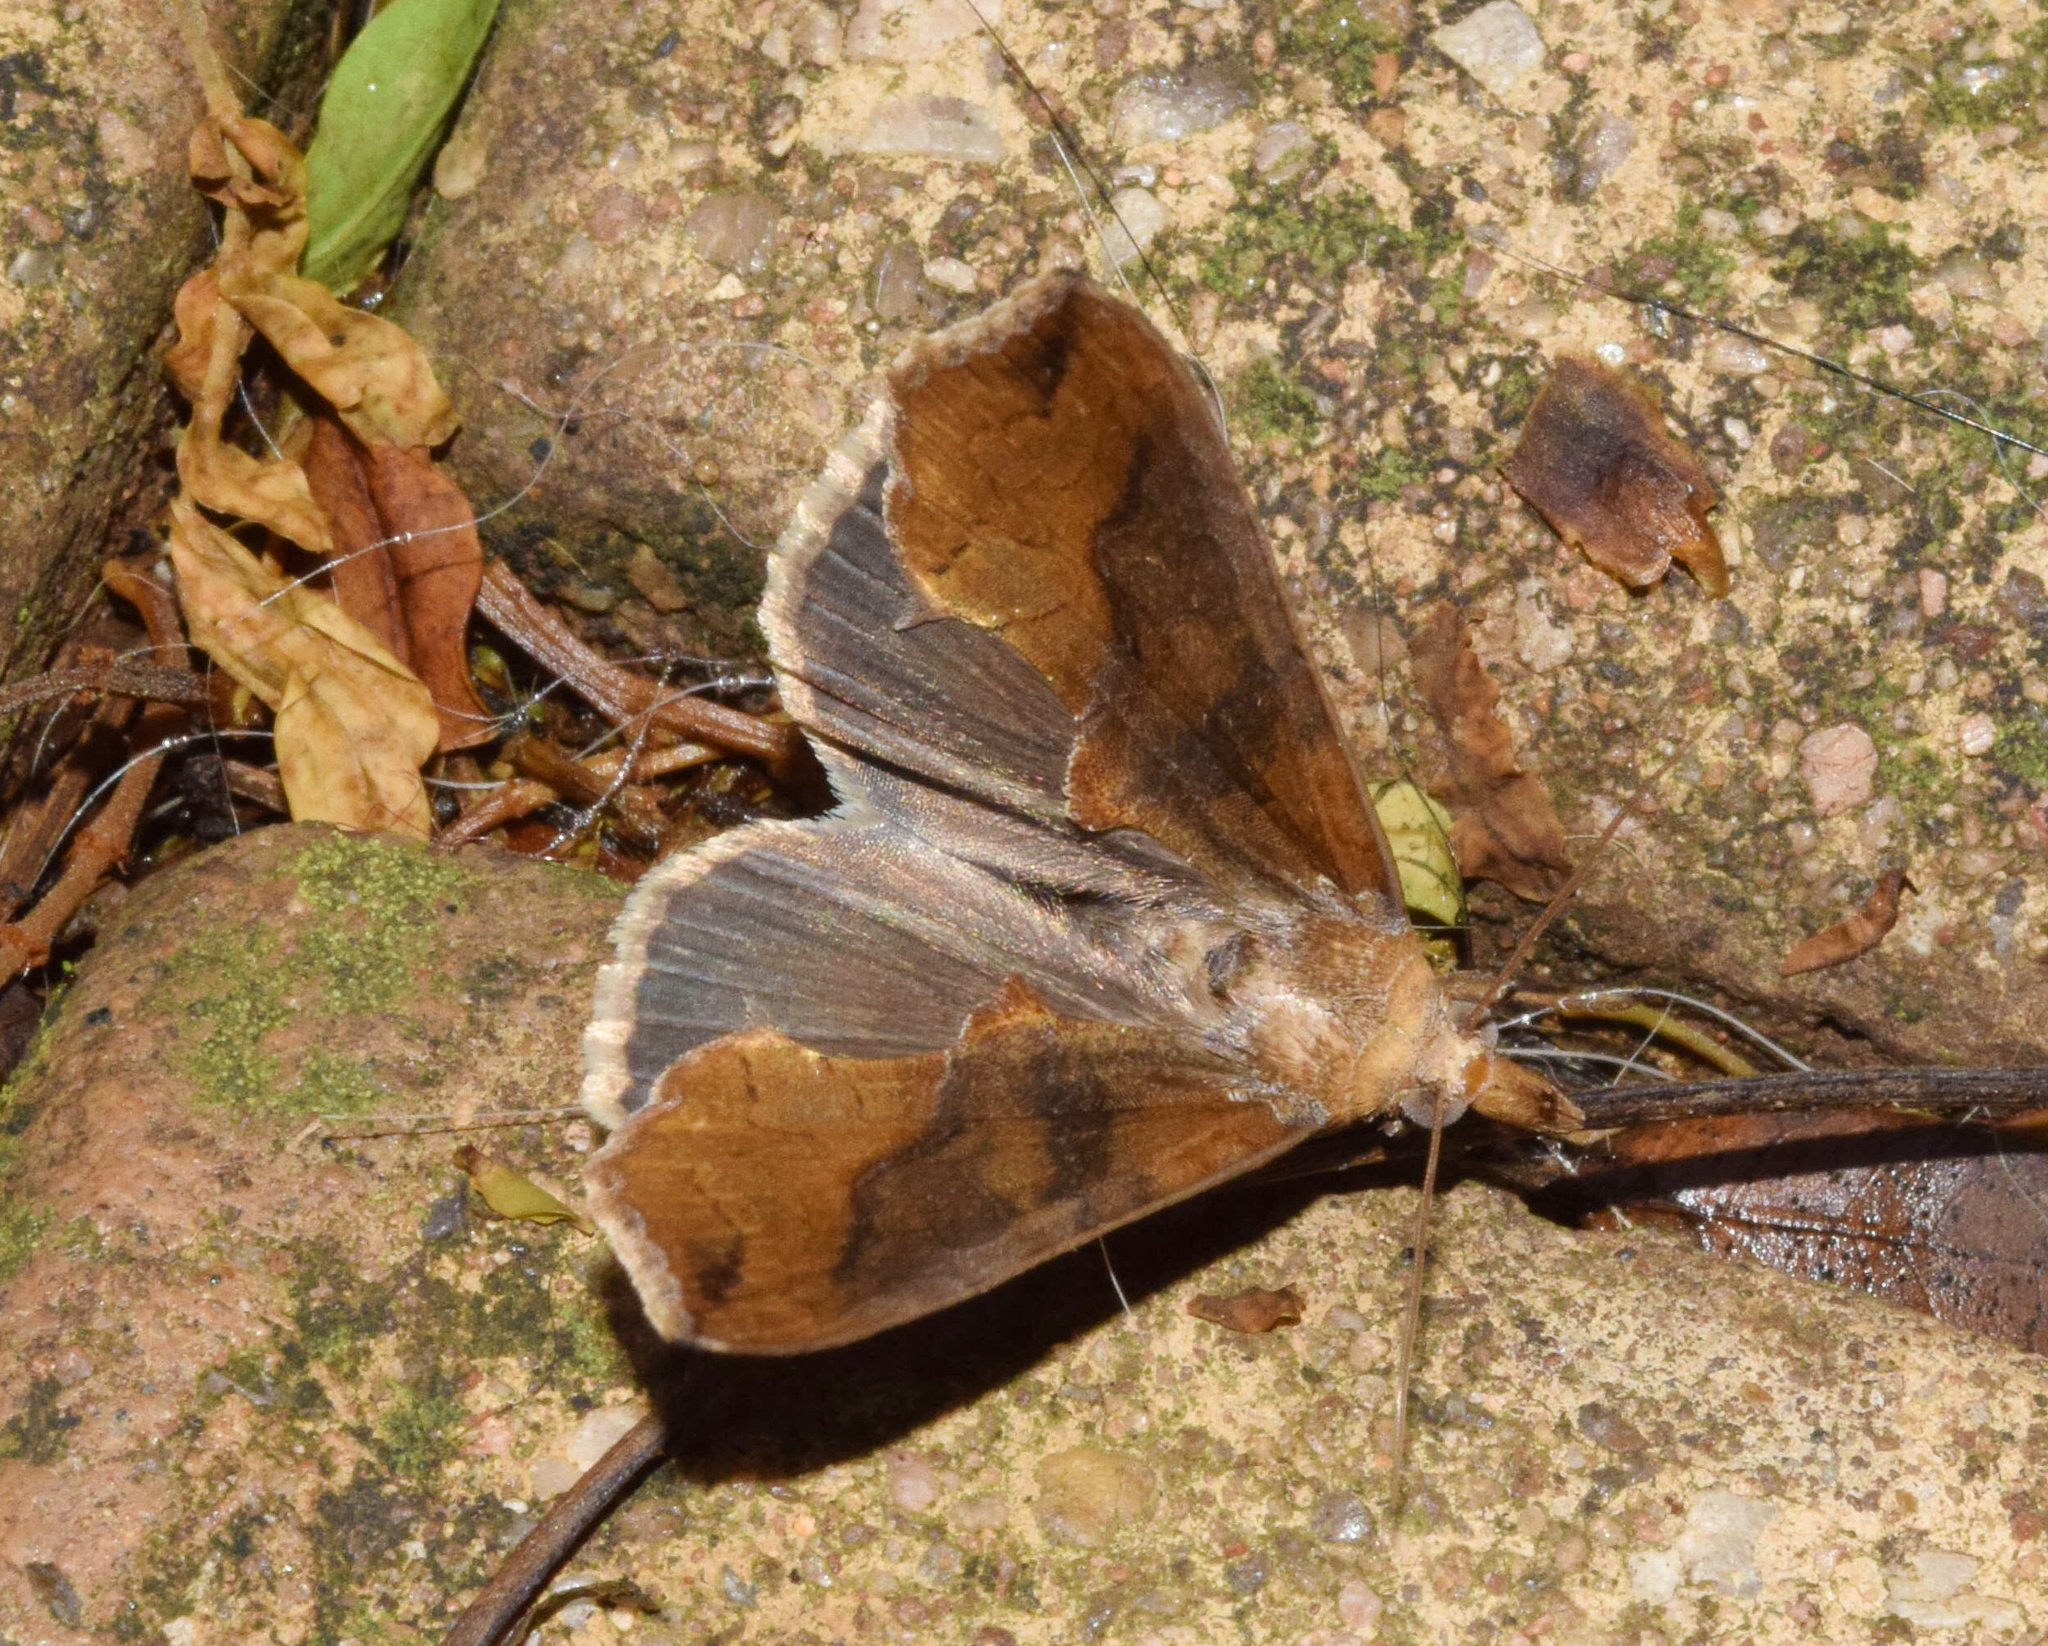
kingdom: Animalia
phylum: Arthropoda
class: Insecta
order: Lepidoptera
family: Erebidae
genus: Plusiodonta
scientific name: Plusiodonta natalensis
